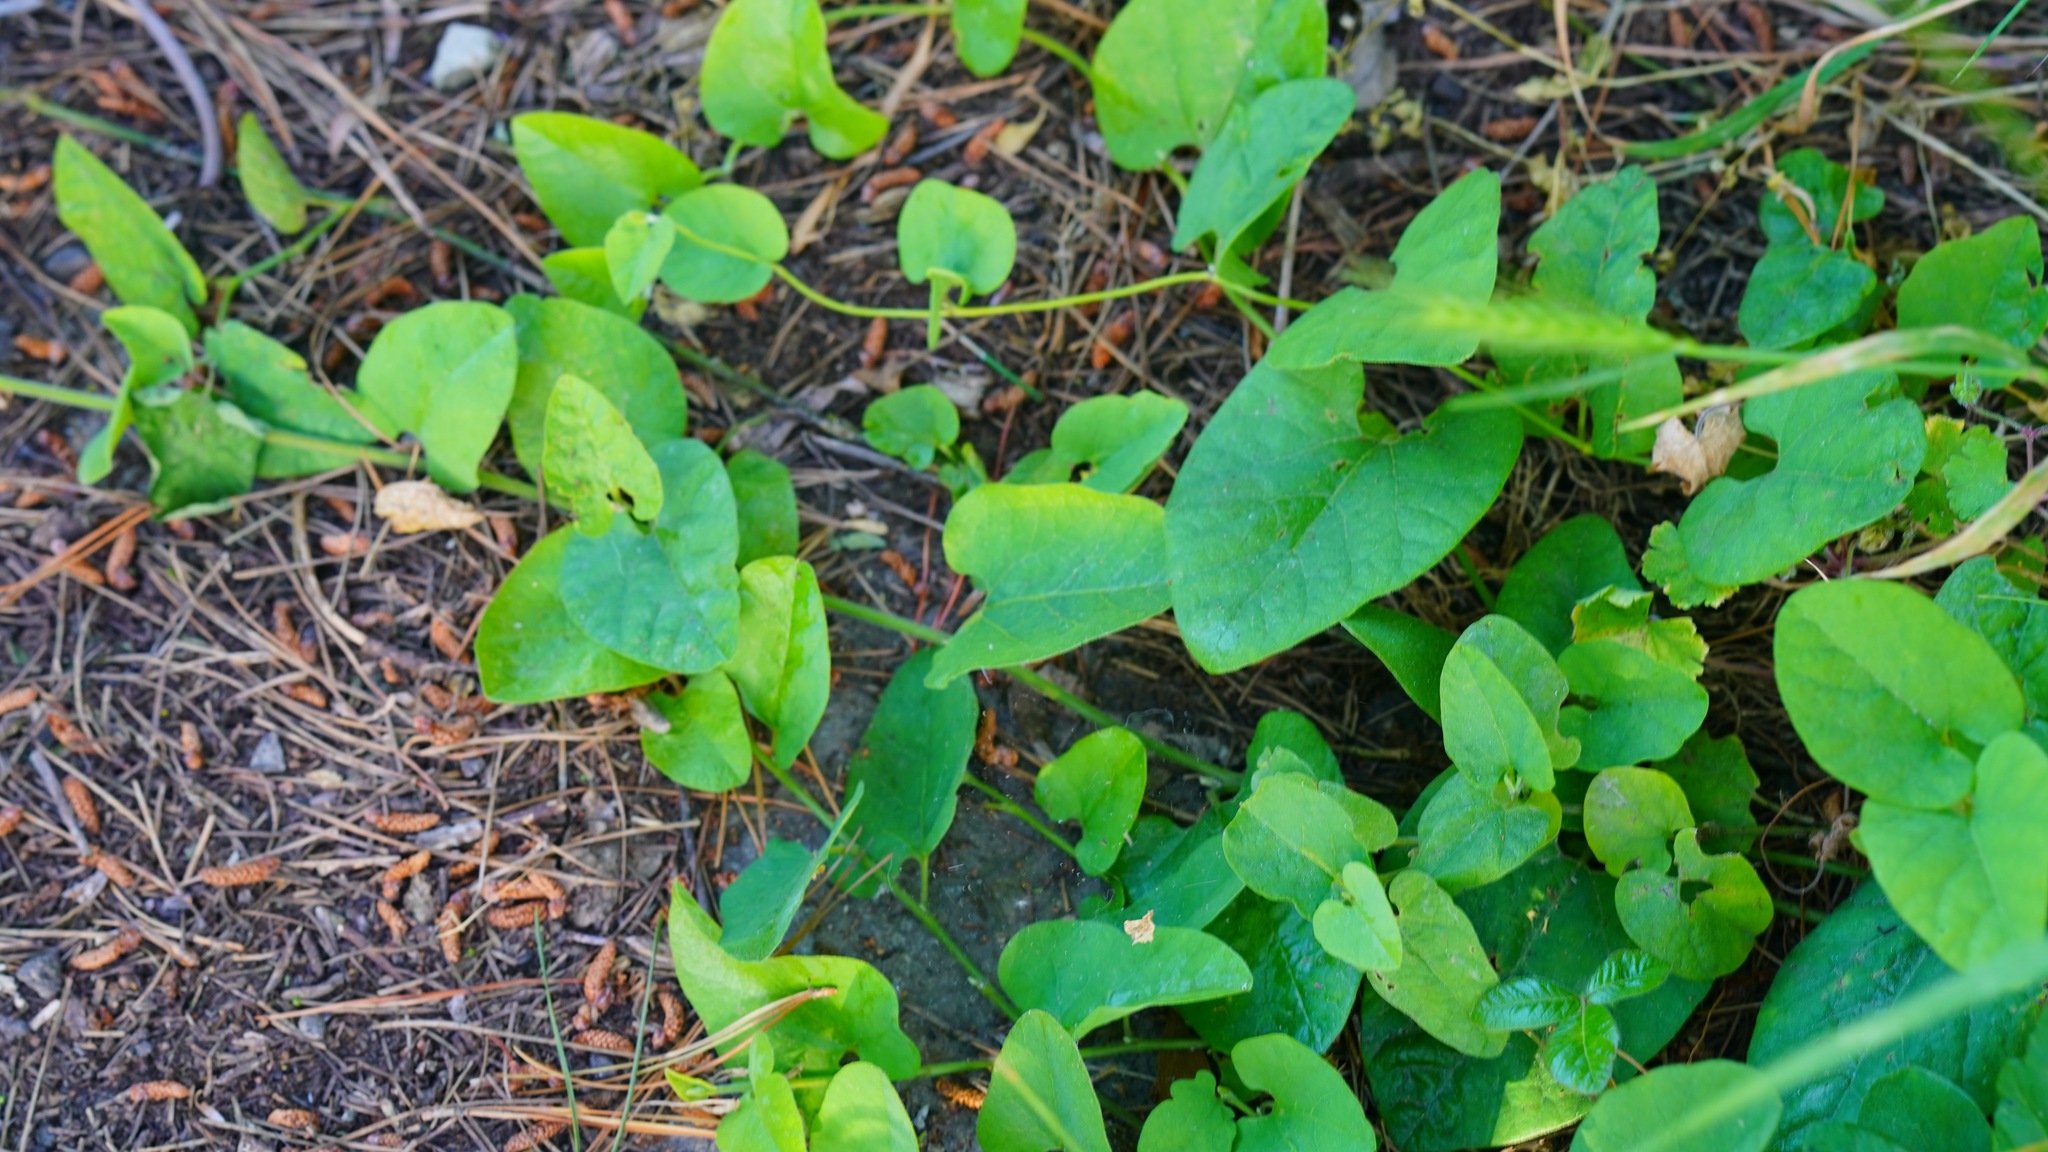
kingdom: Plantae
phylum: Tracheophyta
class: Magnoliopsida
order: Piperales
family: Aristolochiaceae
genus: Isotrema
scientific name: Isotrema californicum
